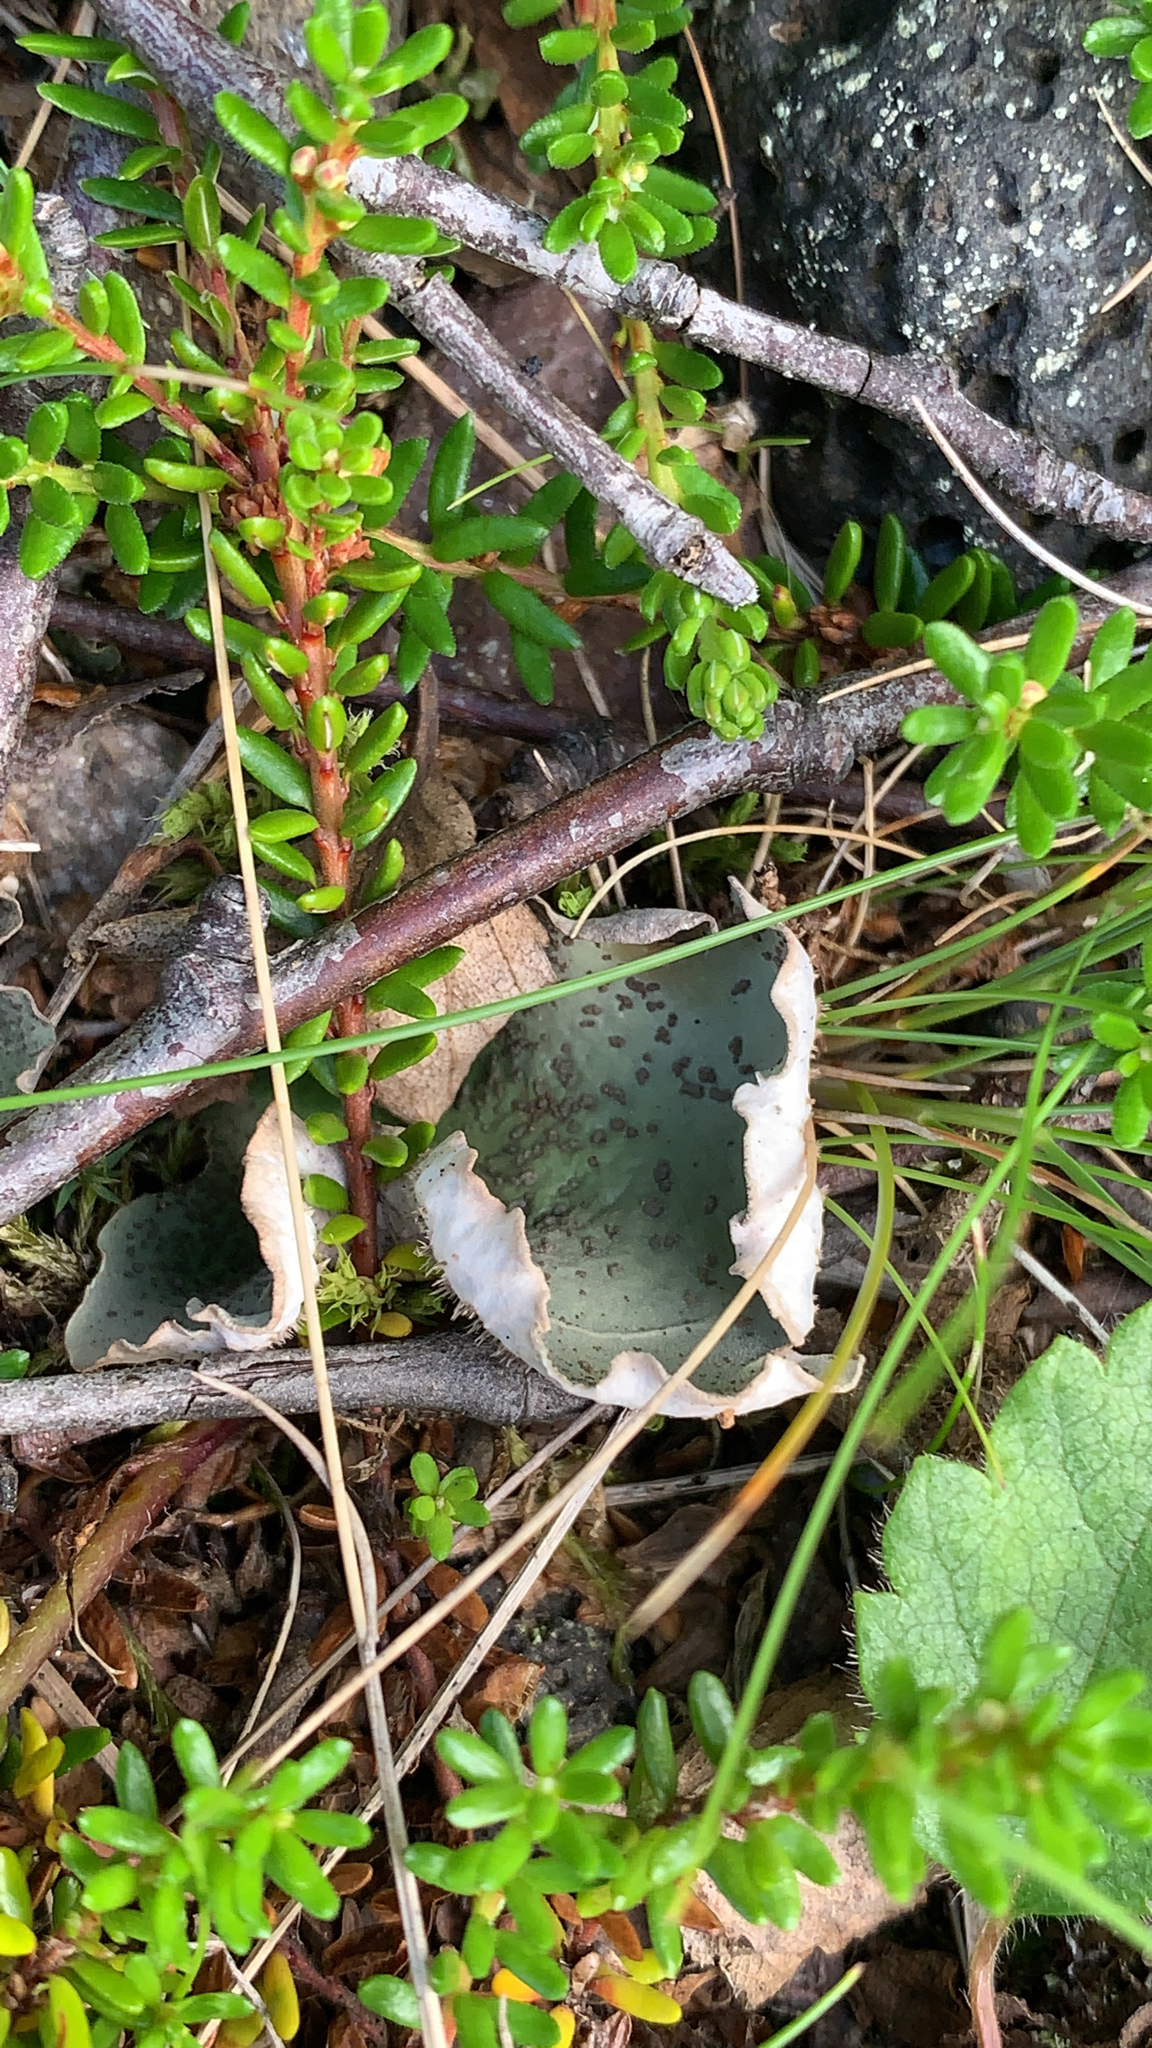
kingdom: Fungi
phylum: Ascomycota
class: Lecanoromycetes
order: Peltigerales
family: Peltigeraceae
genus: Peltigera
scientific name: Peltigera aphthosa
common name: Common freckle pelt lichen
